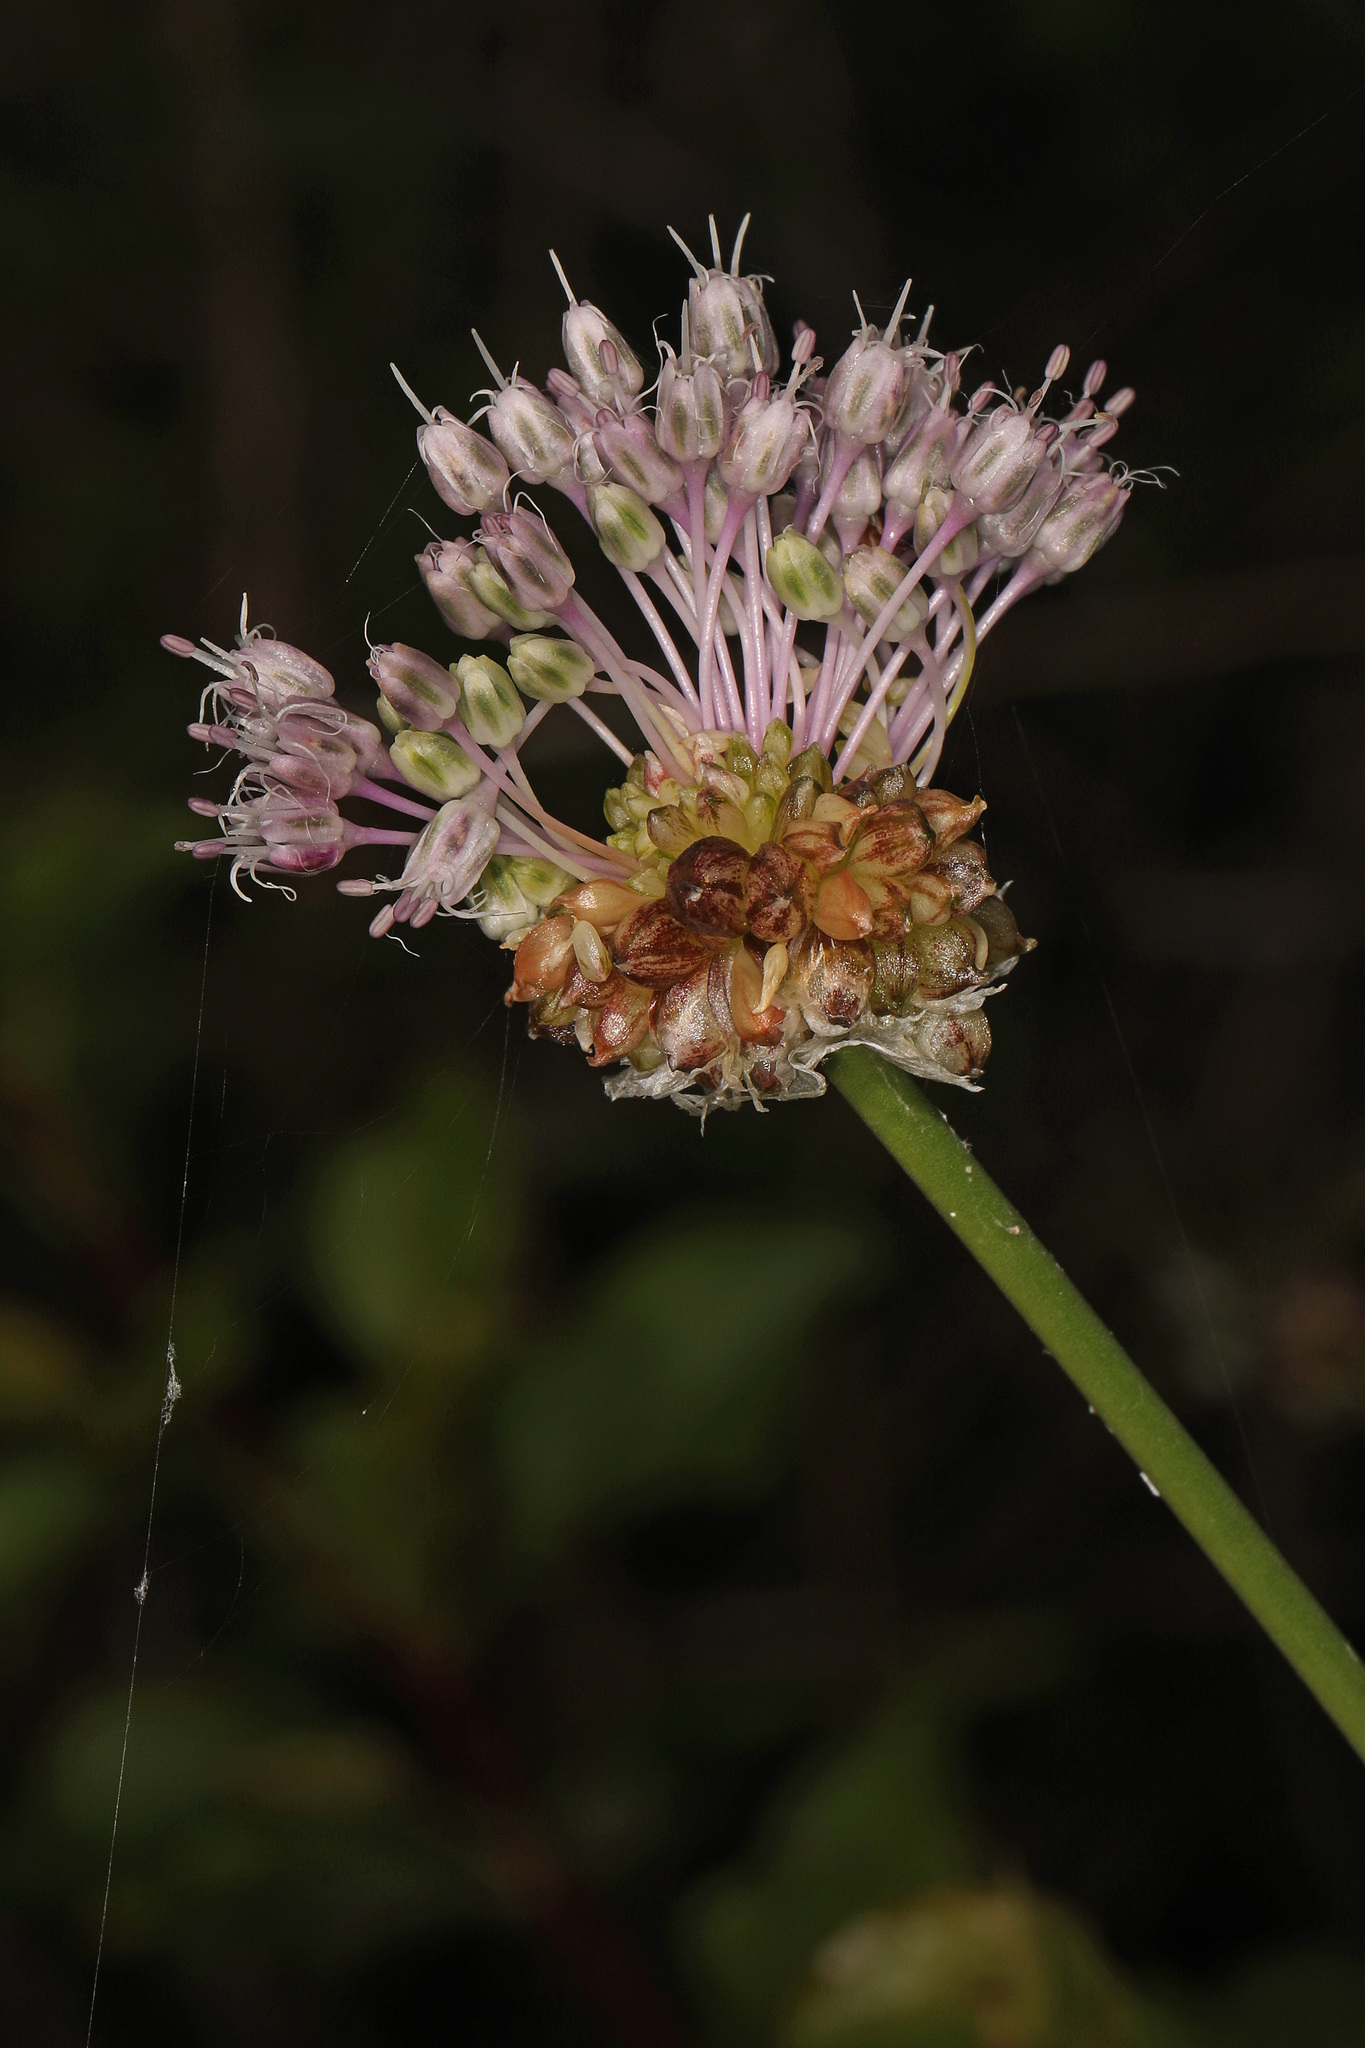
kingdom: Plantae
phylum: Tracheophyta
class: Liliopsida
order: Asparagales
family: Amaryllidaceae
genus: Allium
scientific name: Allium vineale
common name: Crow garlic
